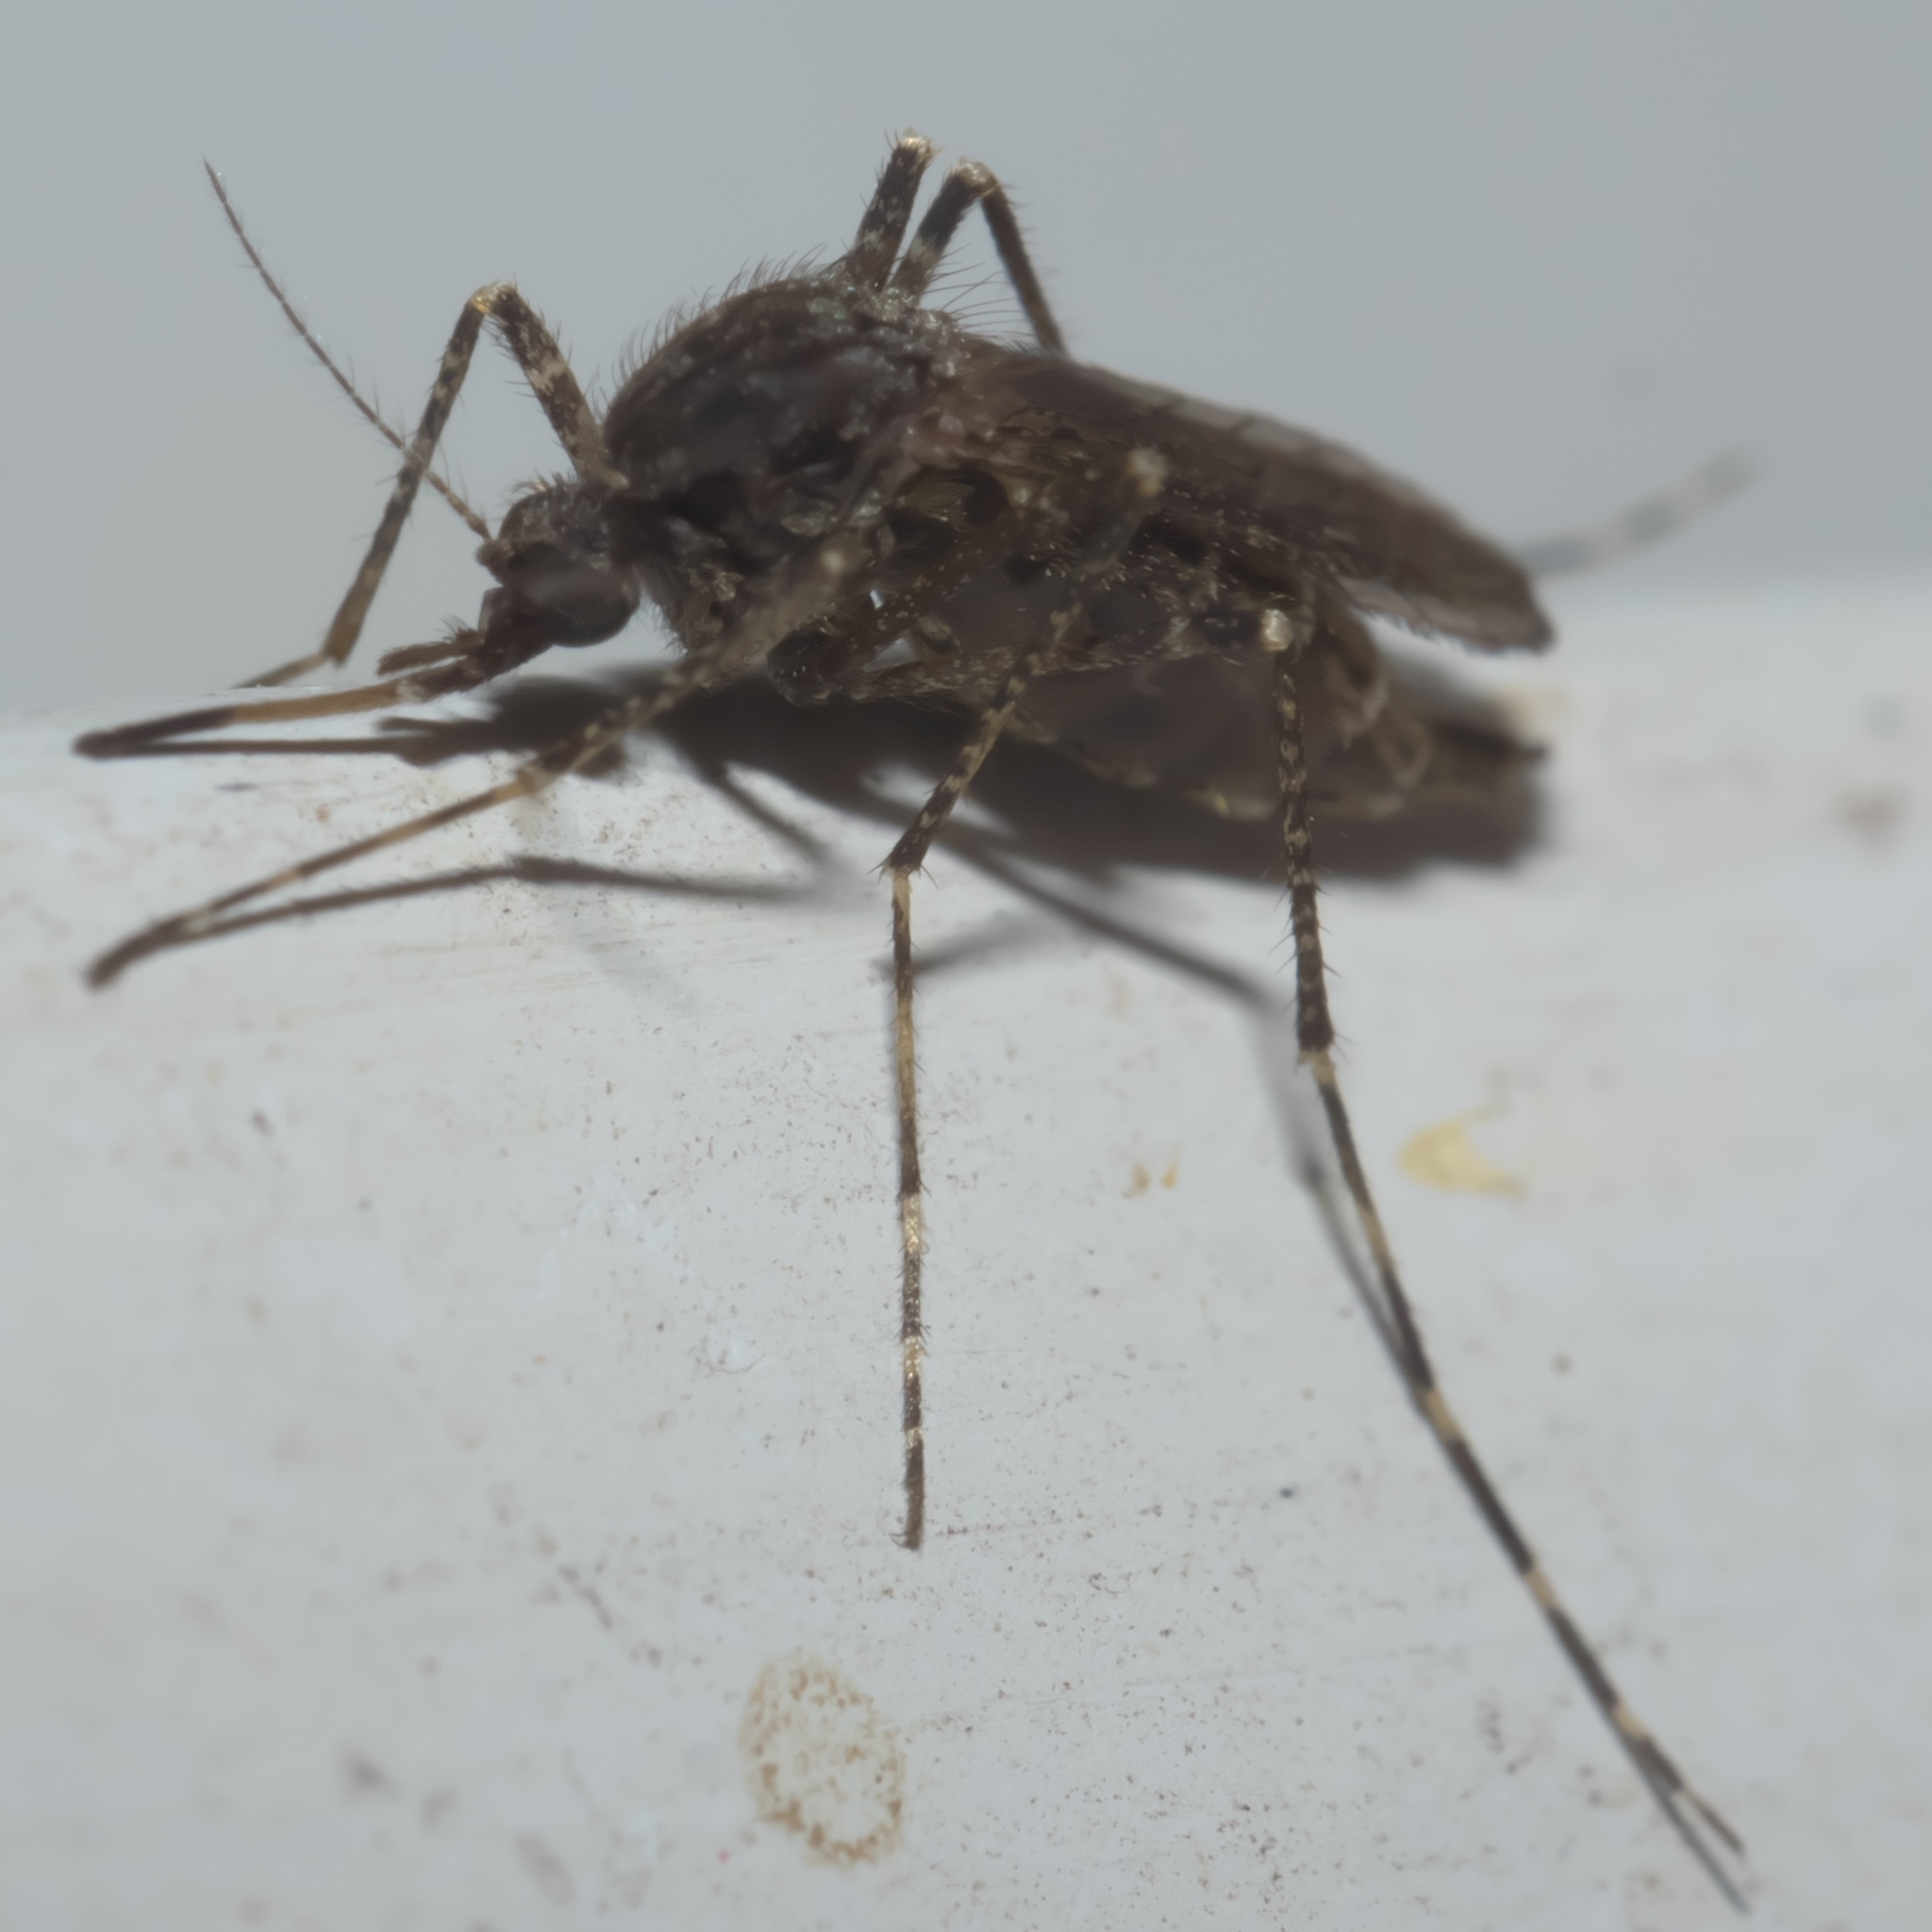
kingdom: Animalia
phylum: Arthropoda
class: Insecta
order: Diptera
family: Culicidae
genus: Psorophora
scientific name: Psorophora columbiae
